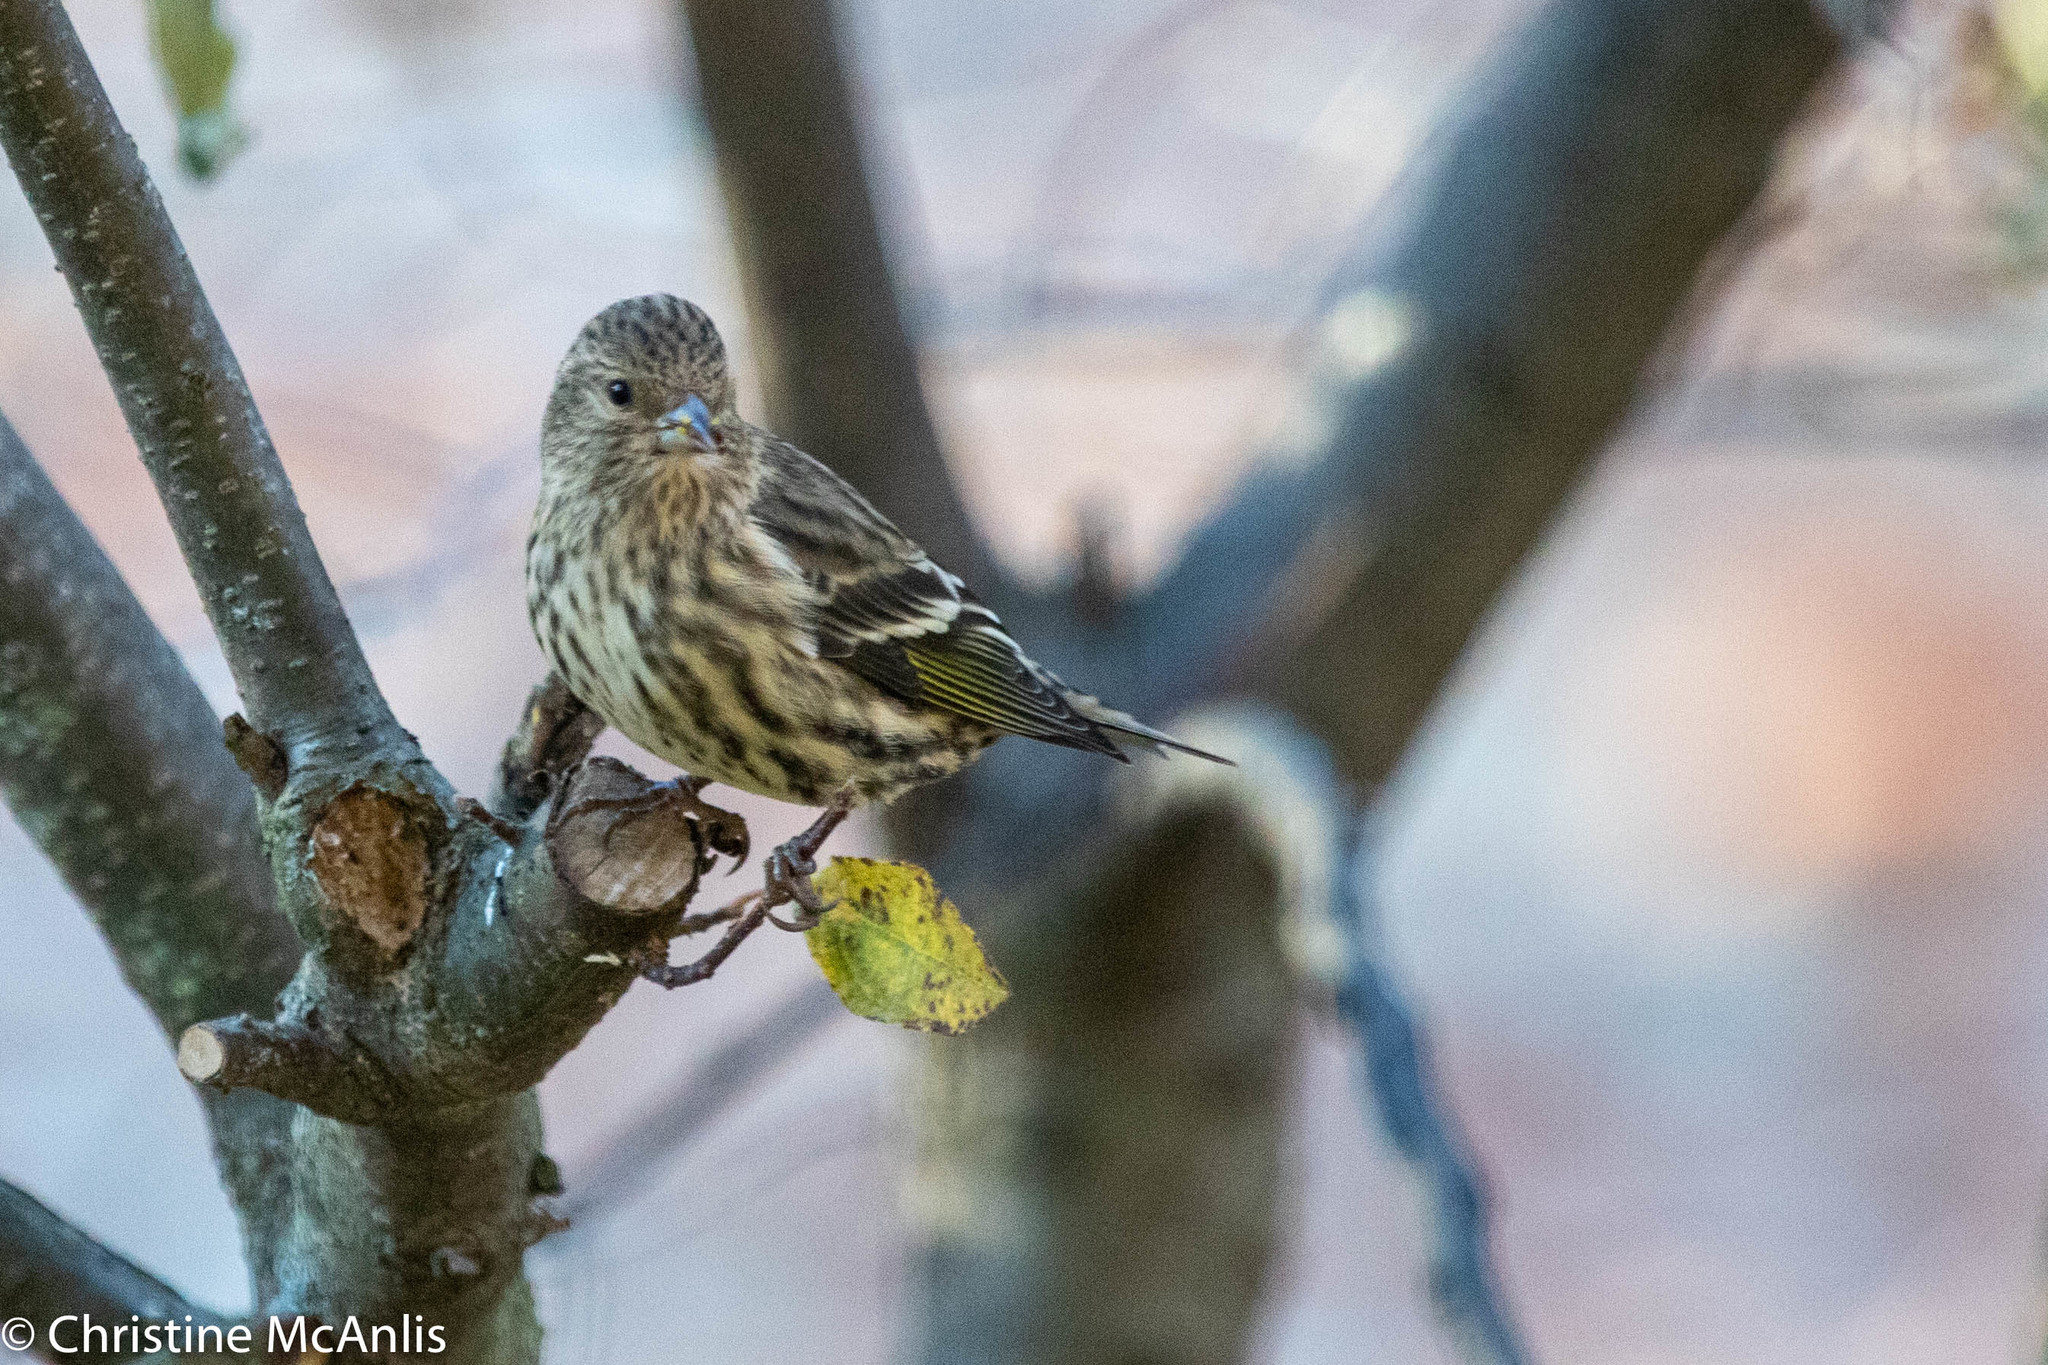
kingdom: Animalia
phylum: Chordata
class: Aves
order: Passeriformes
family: Fringillidae
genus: Spinus
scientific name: Spinus pinus
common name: Pine siskin
